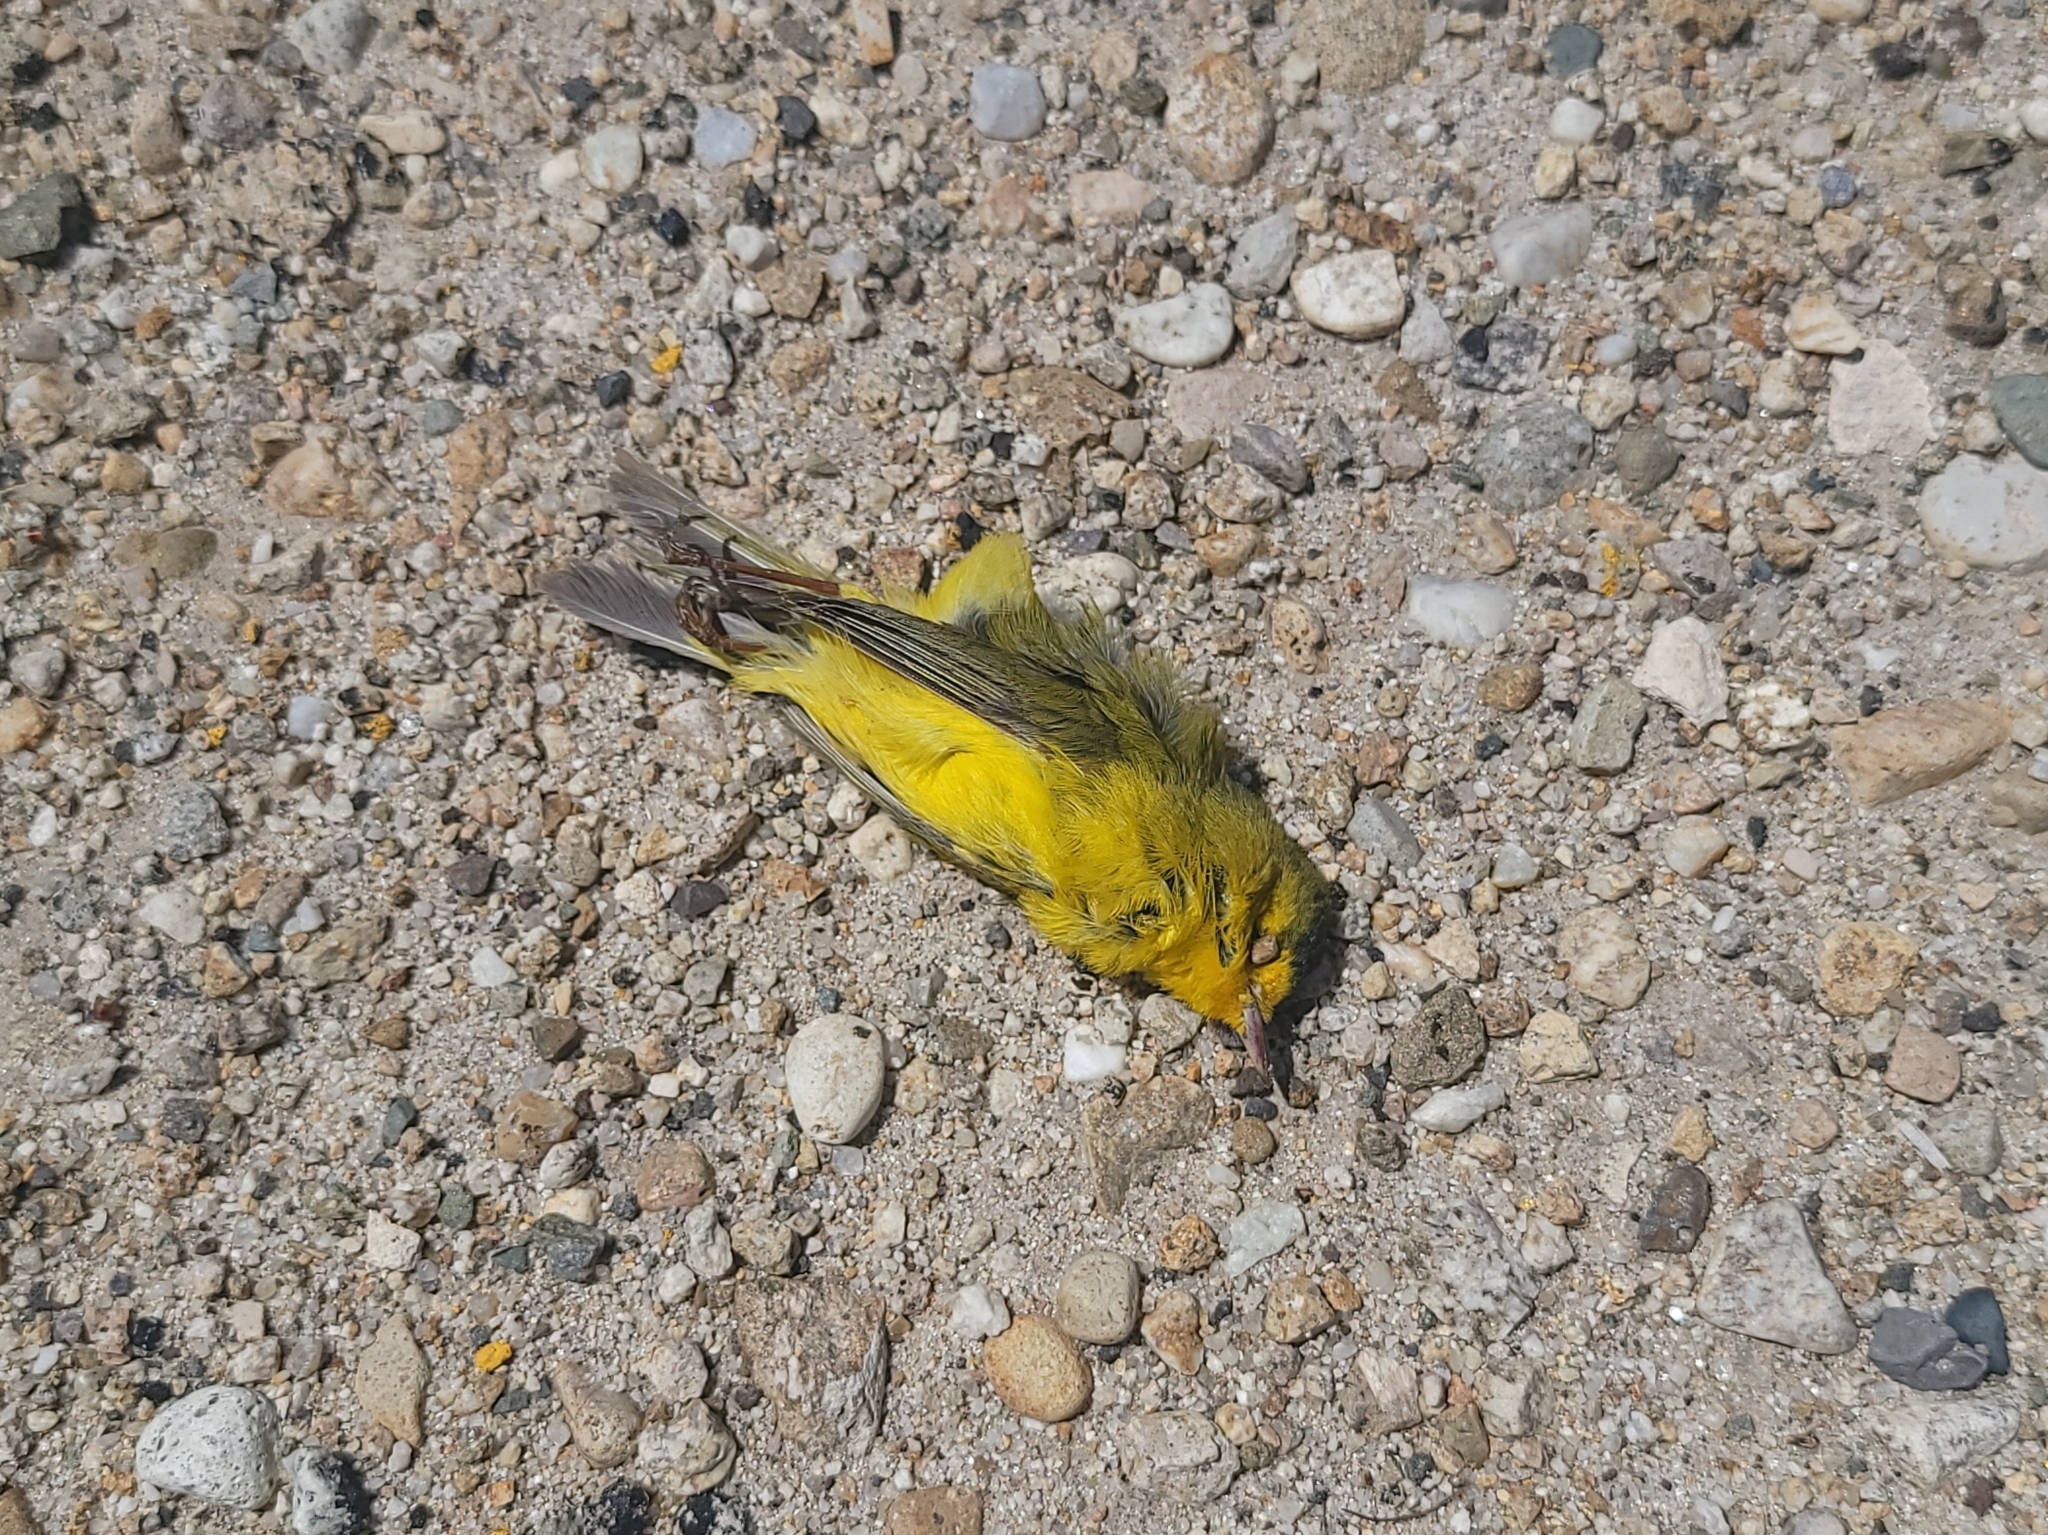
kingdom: Animalia
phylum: Chordata
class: Aves
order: Passeriformes
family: Parulidae
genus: Cardellina
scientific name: Cardellina pusilla
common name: Wilson's warbler
